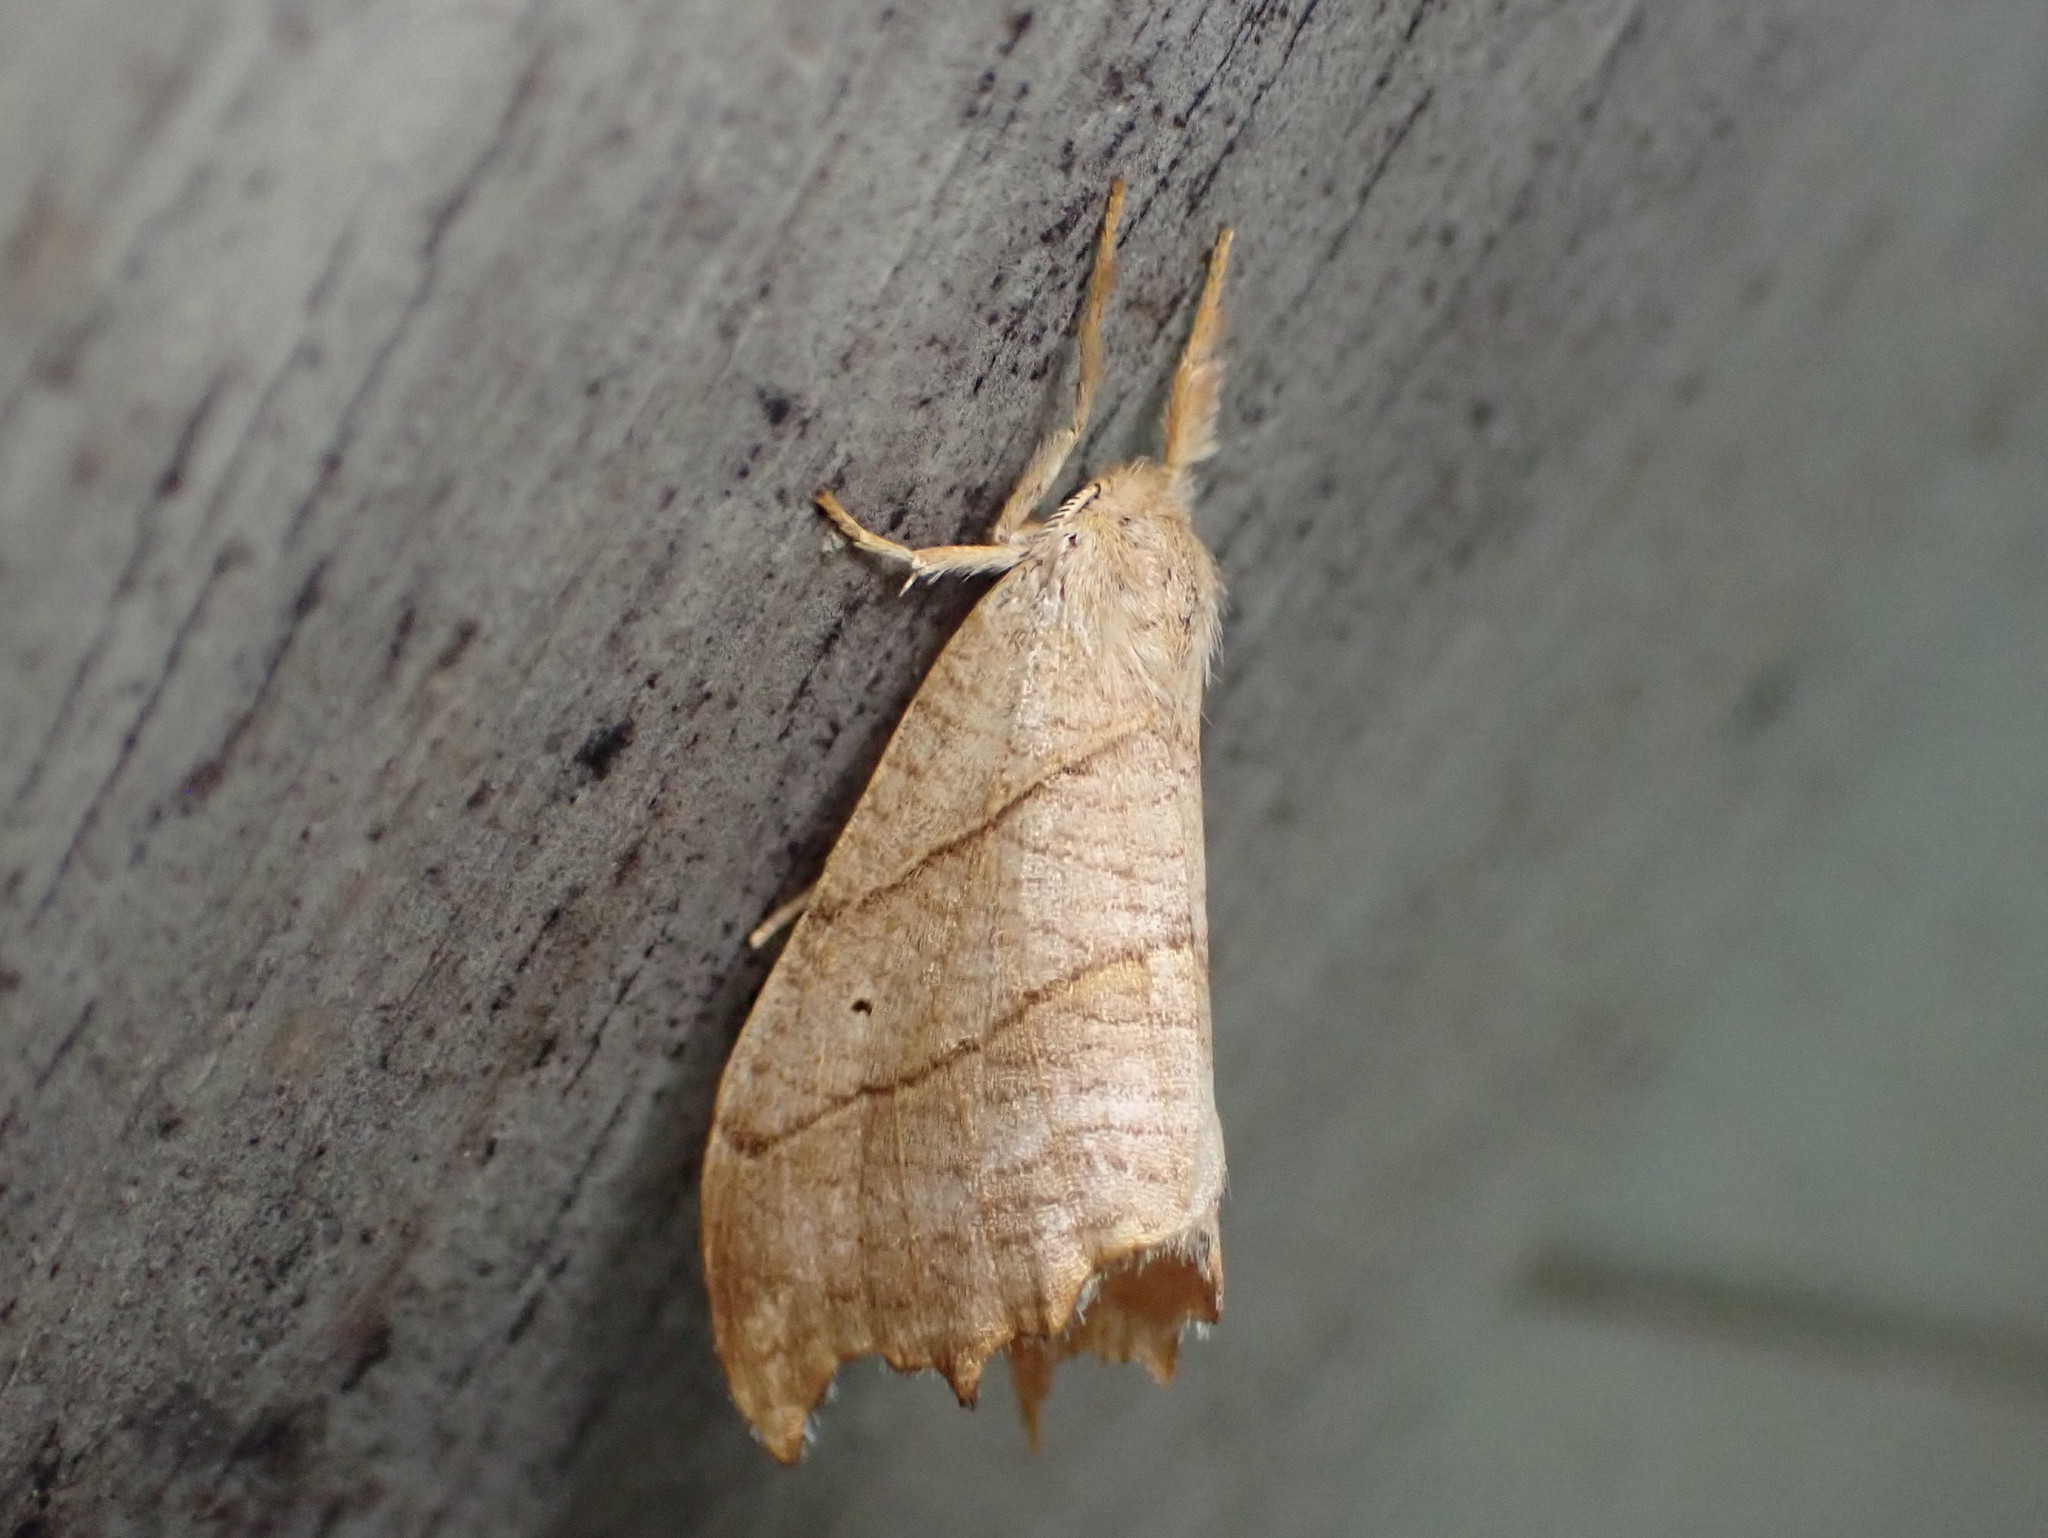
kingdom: Animalia
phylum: Arthropoda
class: Insecta
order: Lepidoptera
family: Drepanidae
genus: Falcaria
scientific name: Falcaria bilineata
